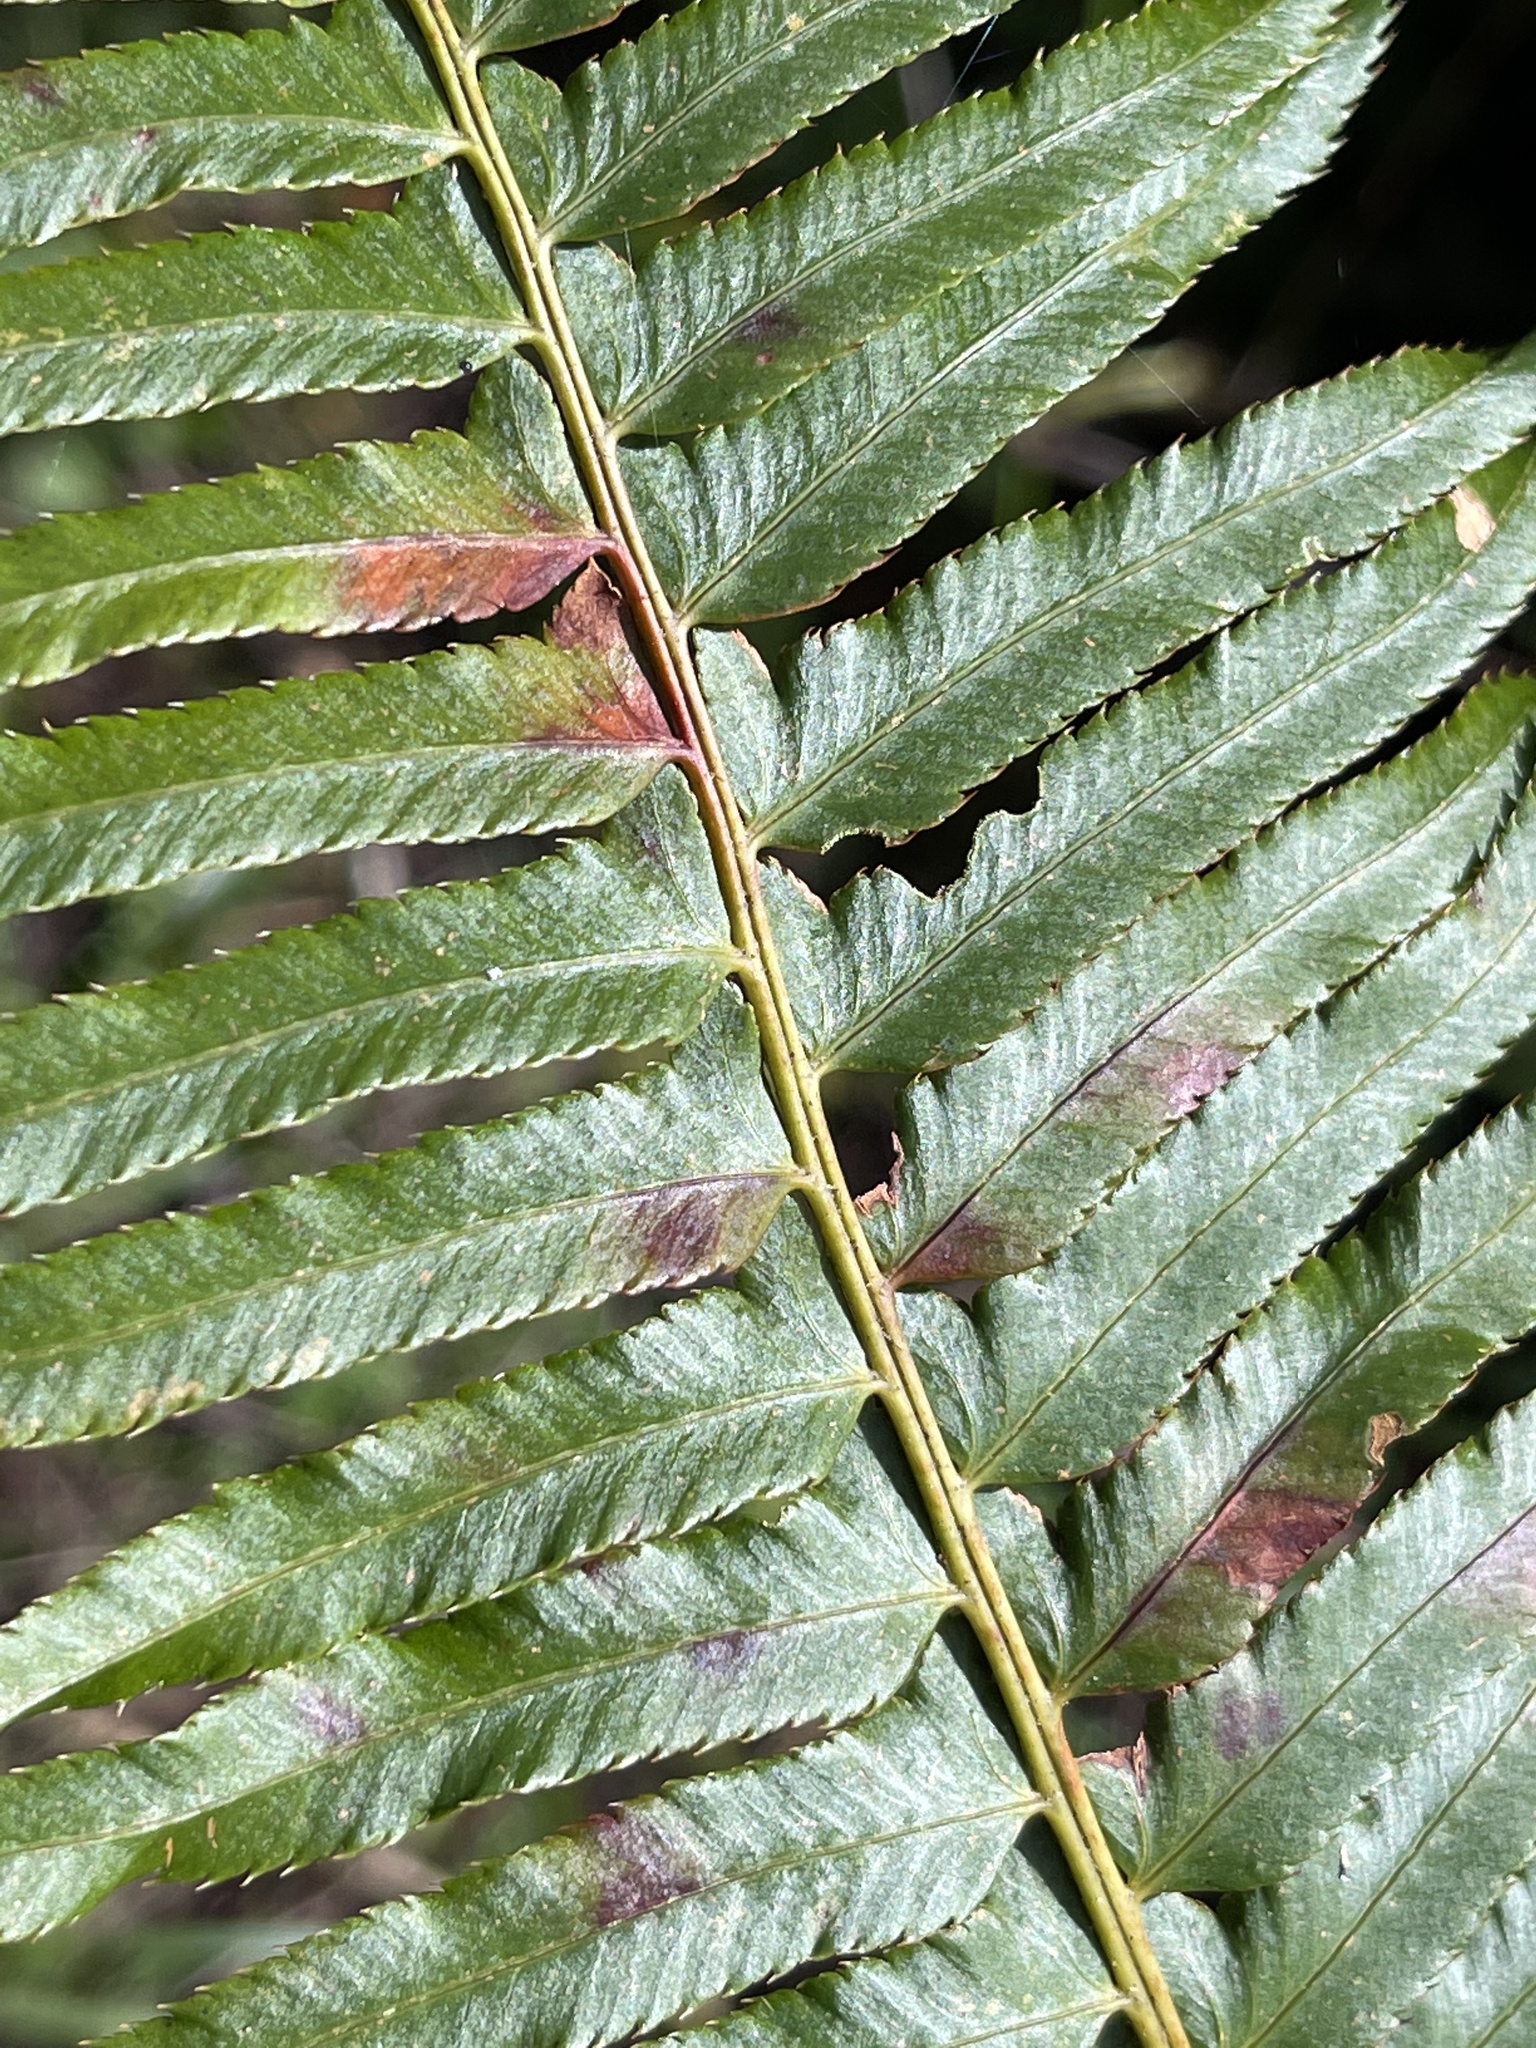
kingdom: Plantae
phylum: Tracheophyta
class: Polypodiopsida
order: Polypodiales
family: Dryopteridaceae
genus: Polystichum
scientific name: Polystichum munitum
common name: Western sword-fern
